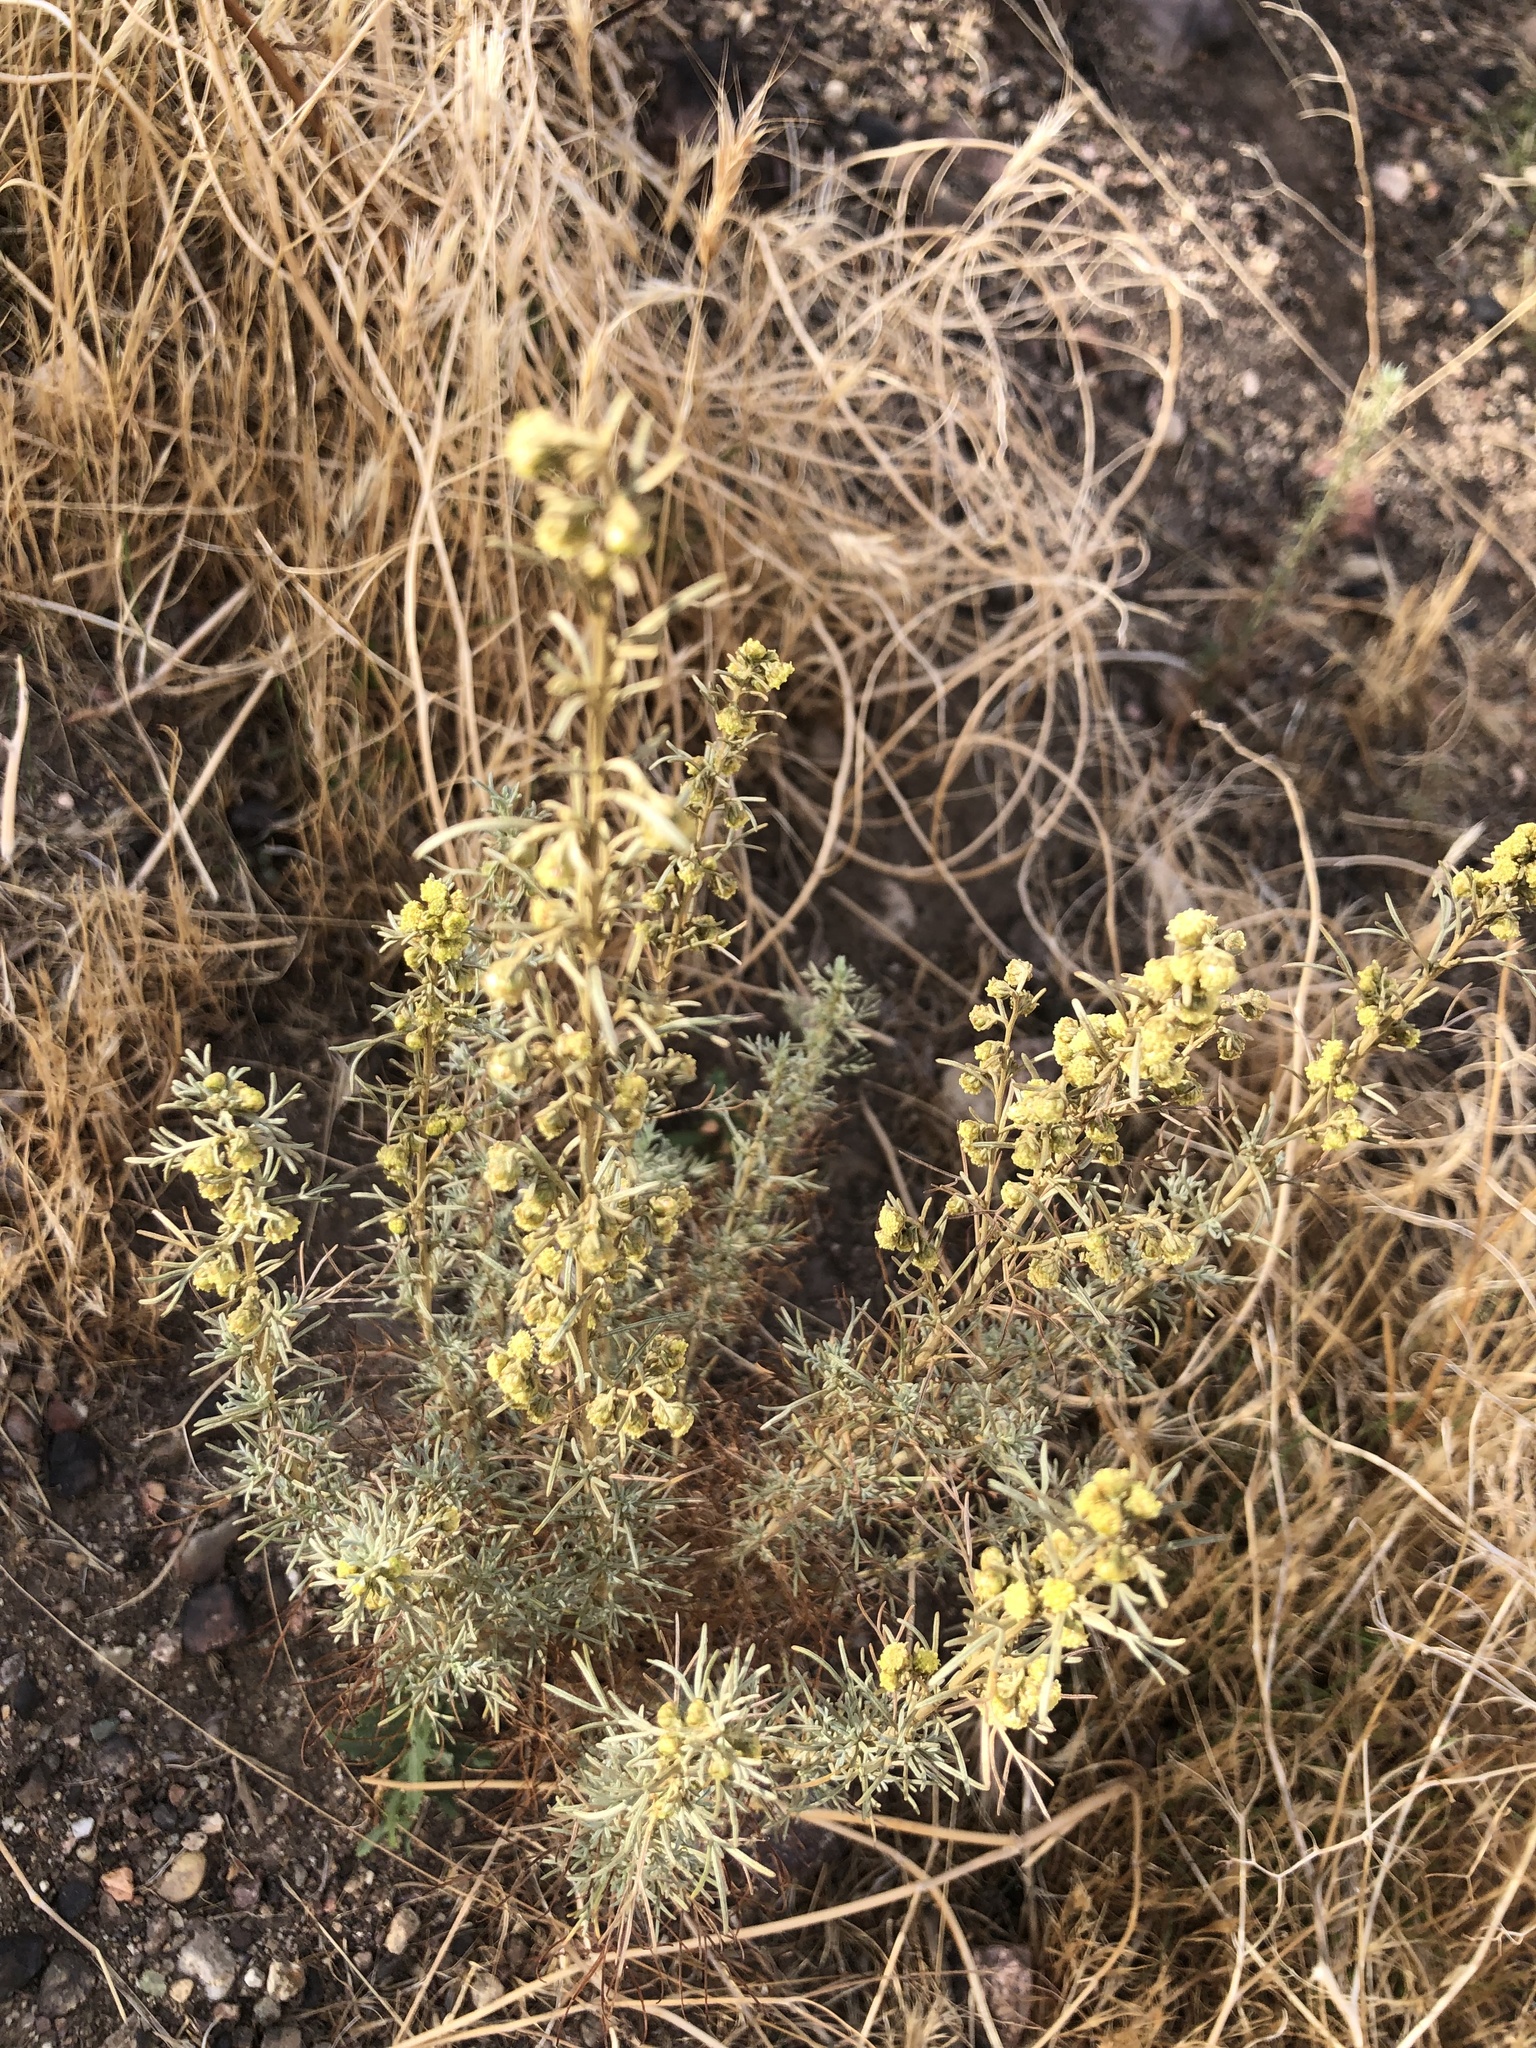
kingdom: Plantae
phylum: Tracheophyta
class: Magnoliopsida
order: Asterales
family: Asteraceae
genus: Artemisia
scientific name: Artemisia californica
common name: California sagebrush
